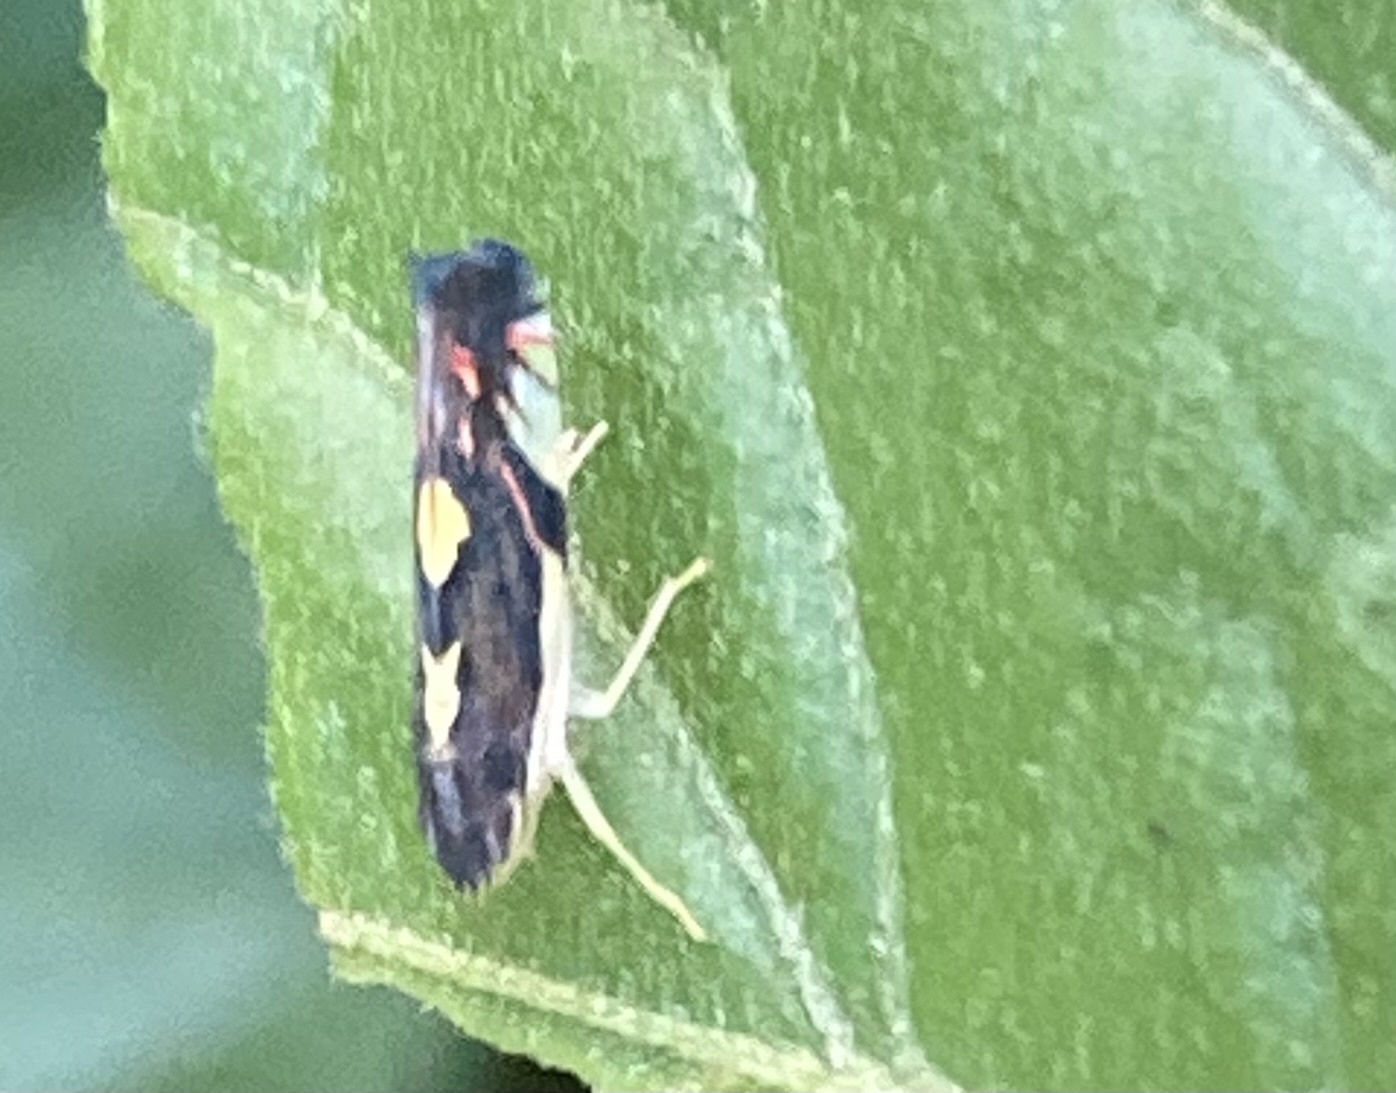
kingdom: Animalia
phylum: Arthropoda
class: Insecta
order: Hemiptera
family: Cicadellidae
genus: Diedrocephala
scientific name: Diedrocephala variegata
